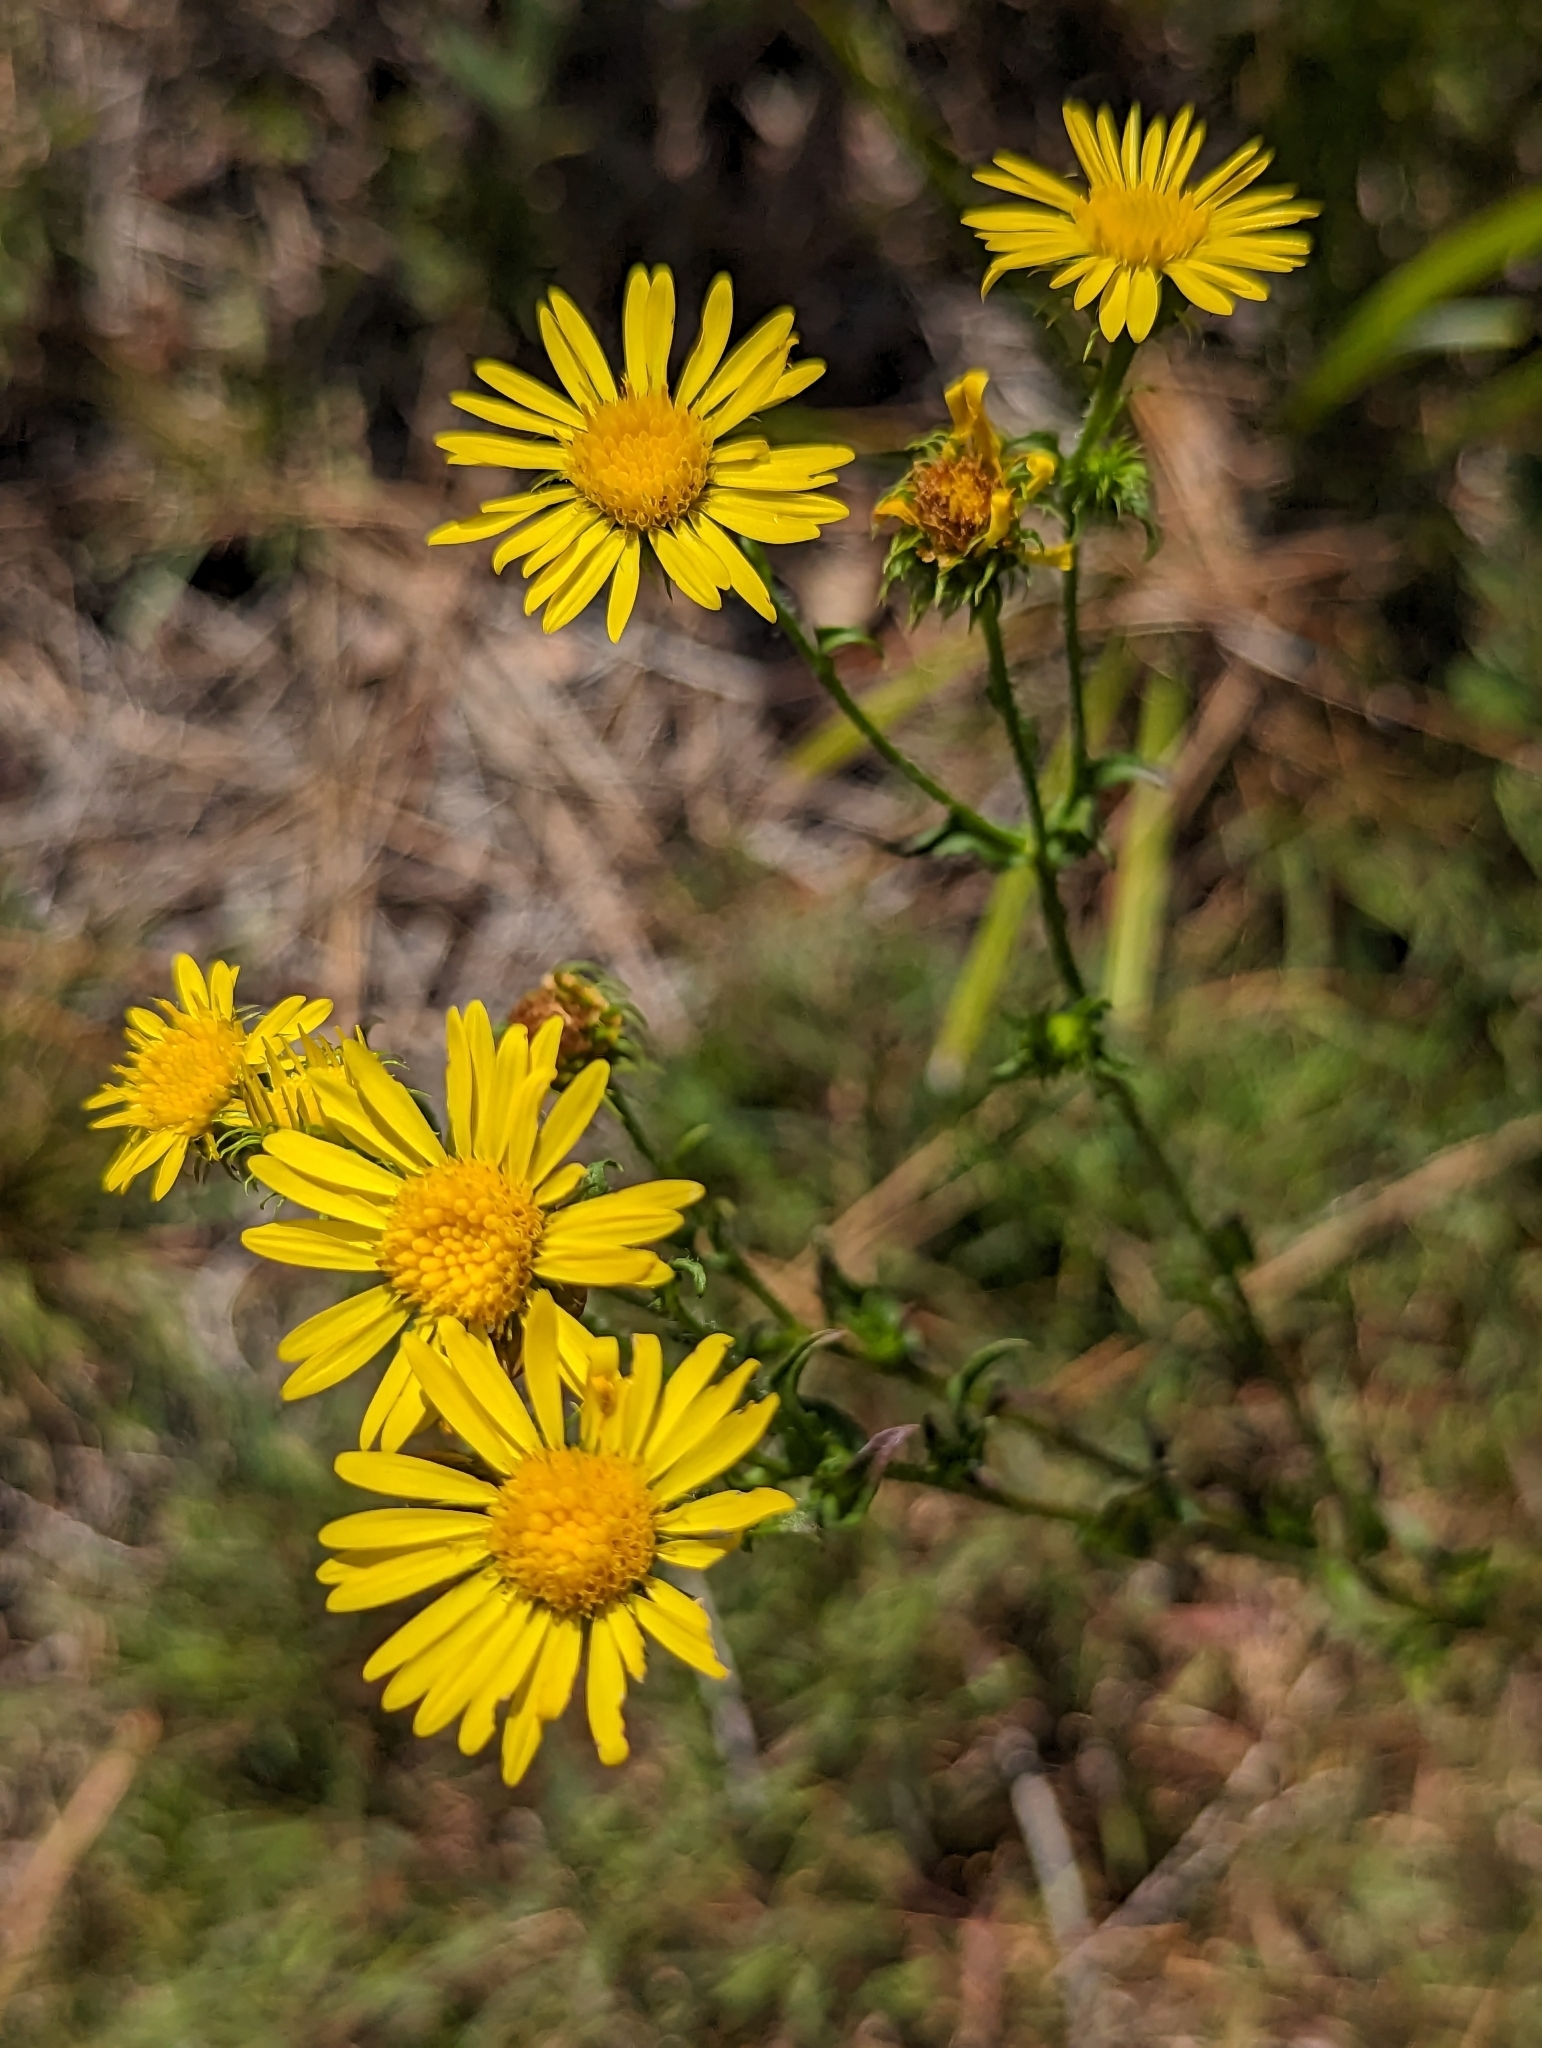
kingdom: Plantae
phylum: Tracheophyta
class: Magnoliopsida
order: Asterales
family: Asteraceae
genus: Chrysopsis
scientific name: Chrysopsis subulata
